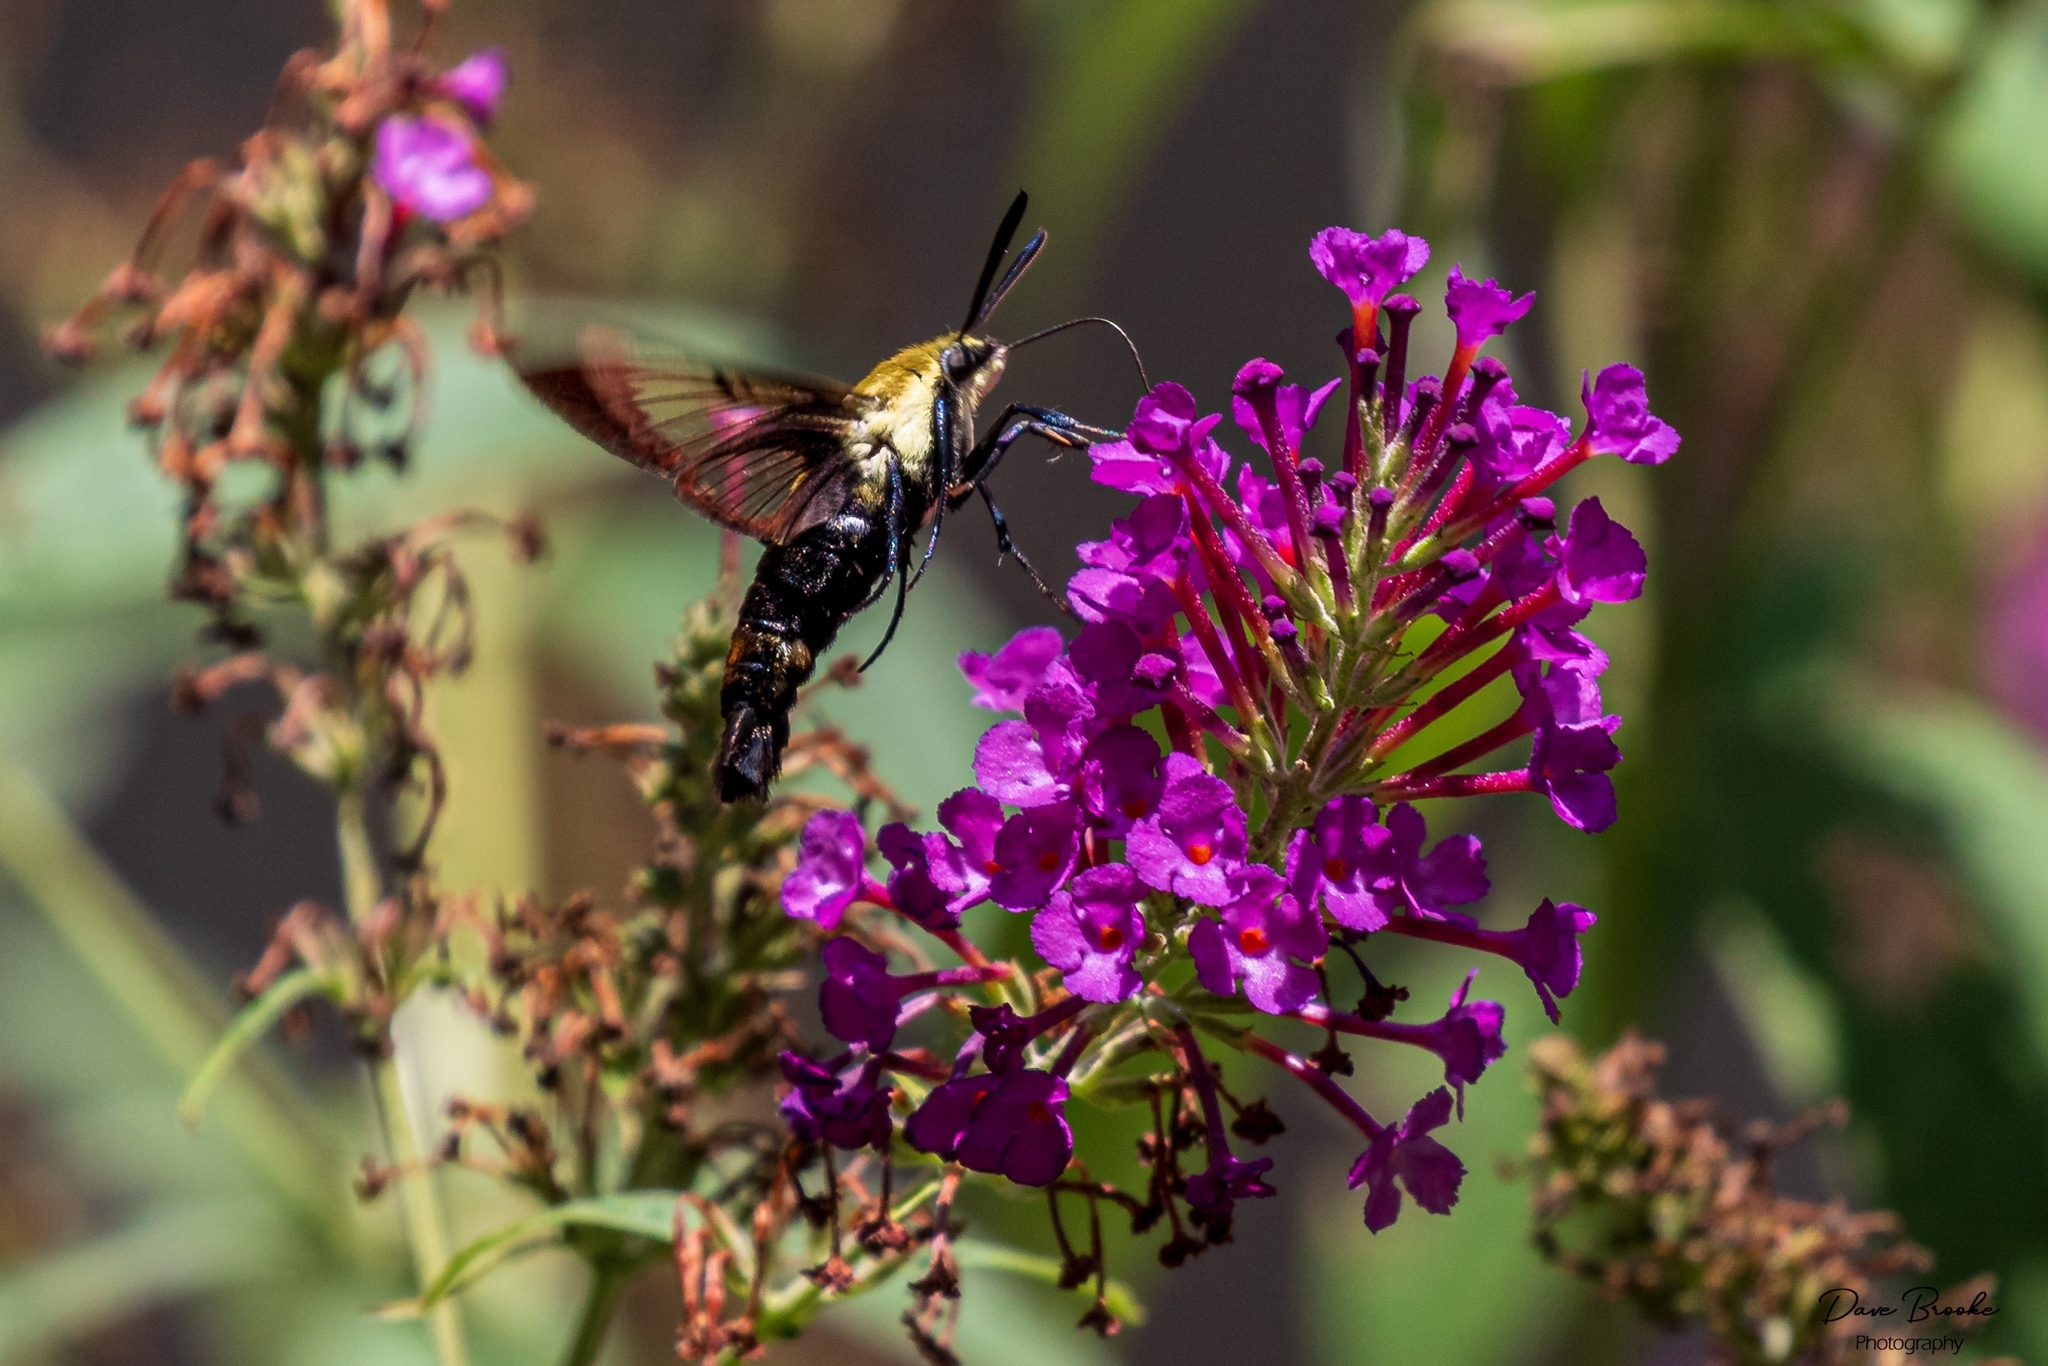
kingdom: Animalia
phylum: Arthropoda
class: Insecta
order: Lepidoptera
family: Sphingidae
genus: Hemaris
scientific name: Hemaris diffinis
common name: Bumblebee moth
